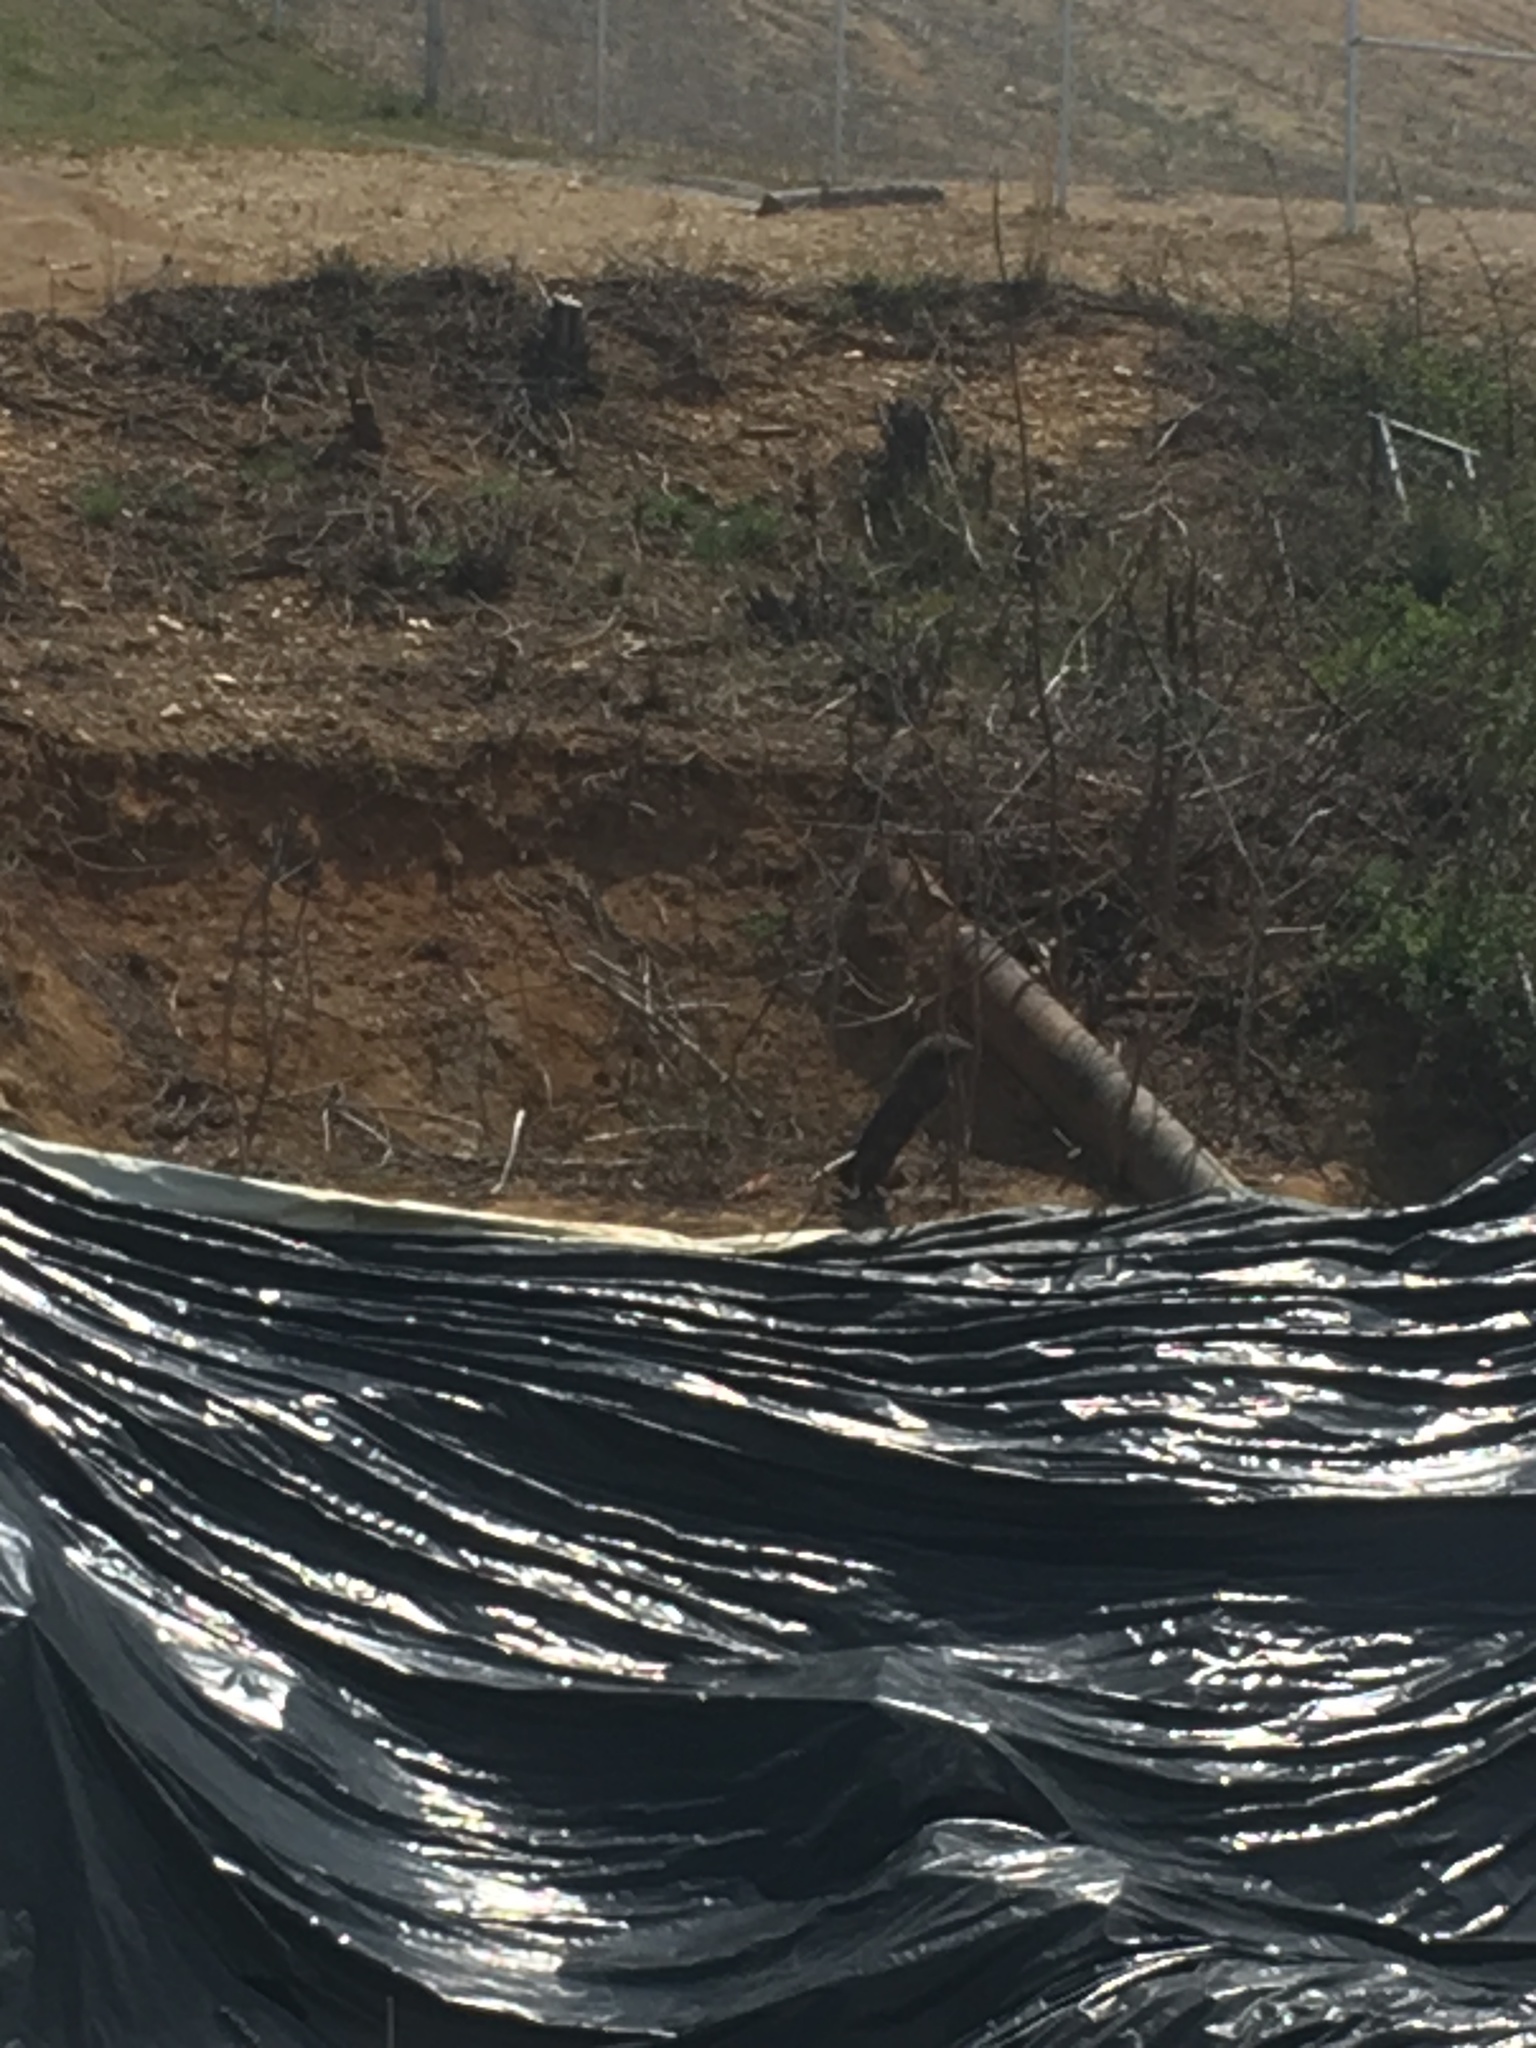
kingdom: Animalia
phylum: Chordata
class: Mammalia
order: Rodentia
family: Sciuridae
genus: Marmota
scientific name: Marmota monax
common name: Groundhog
